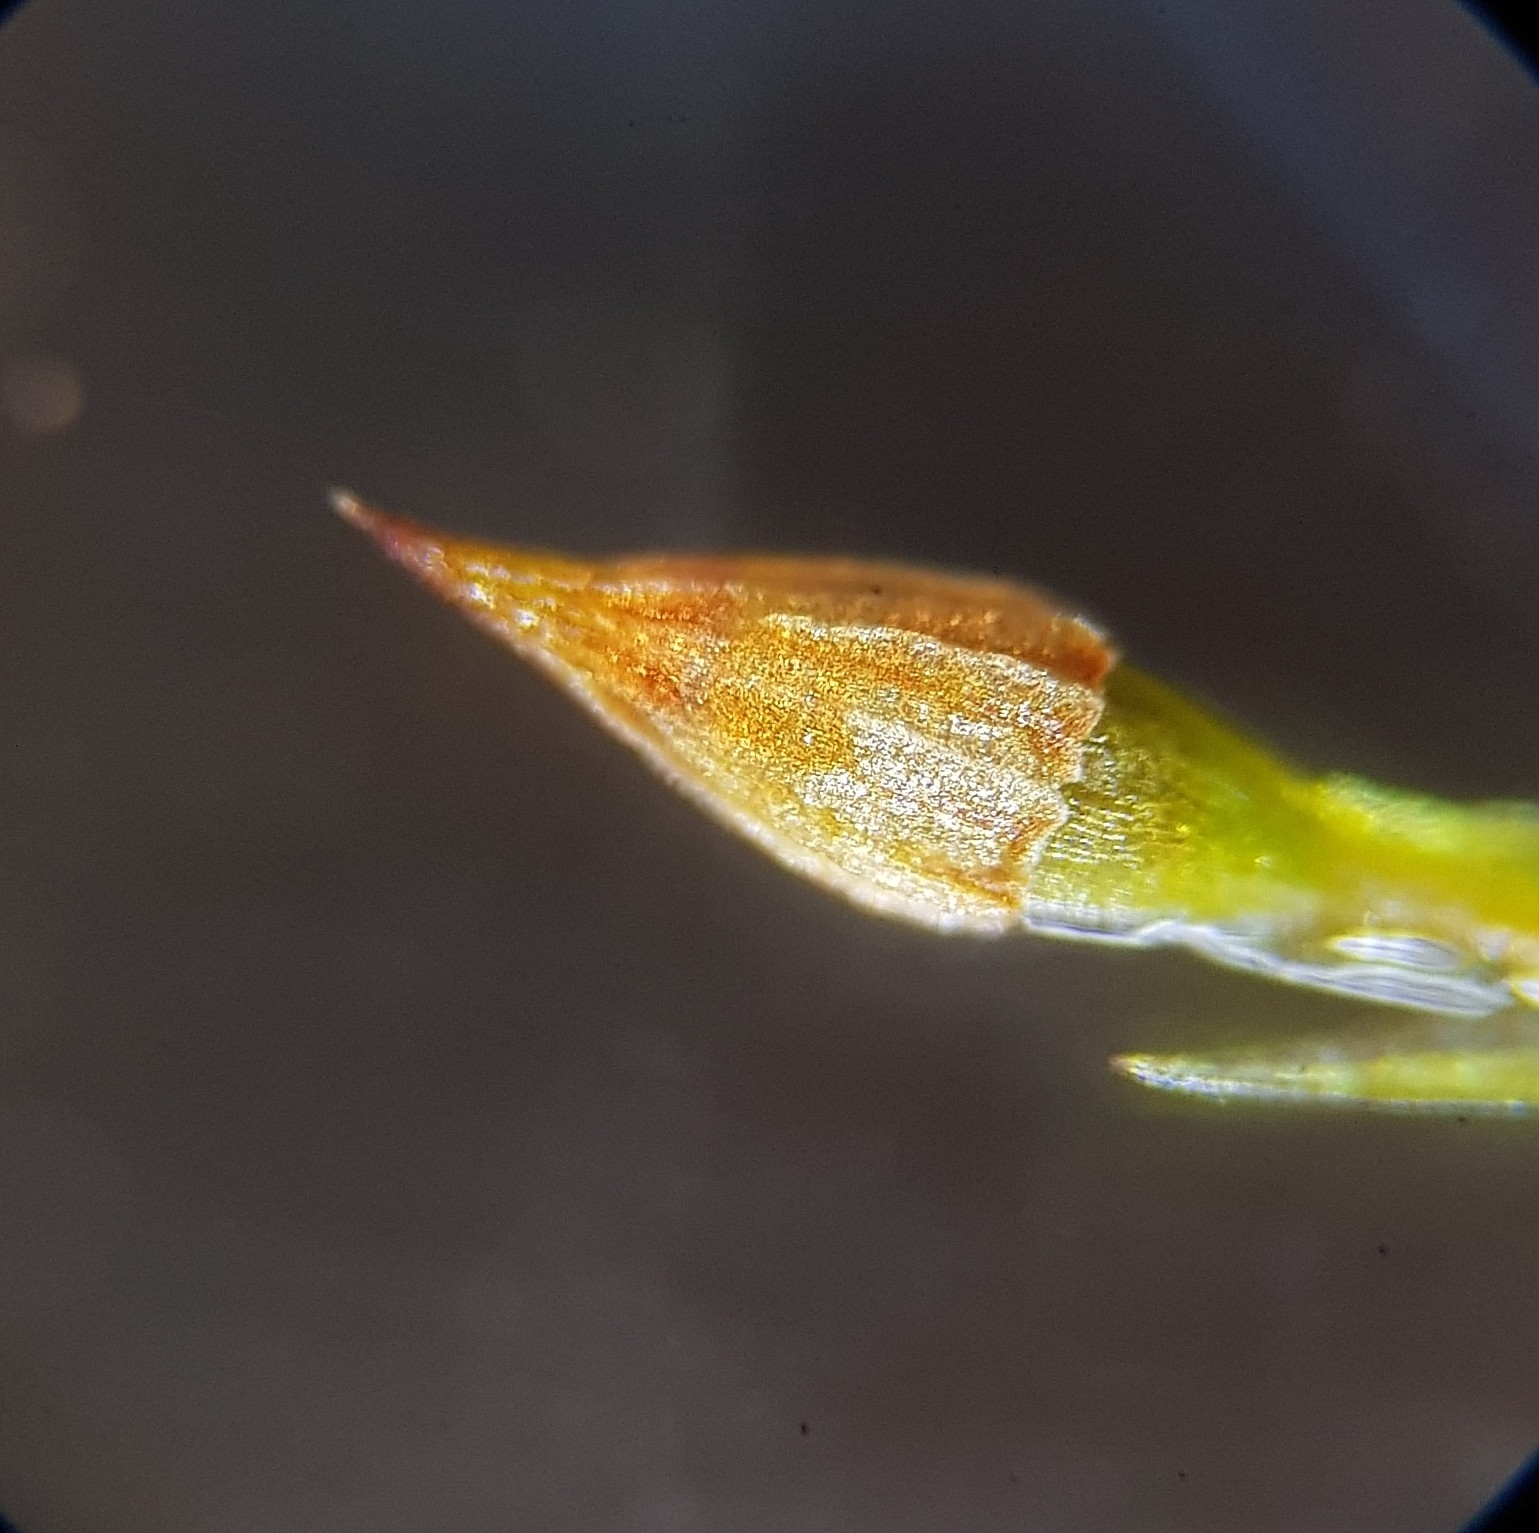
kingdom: Plantae
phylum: Bryophyta
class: Bryopsida
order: Orthotrichales
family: Orthotrichaceae
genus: Orthotrichum
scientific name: Orthotrichum pulchellum
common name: Elegant bristle-moss
